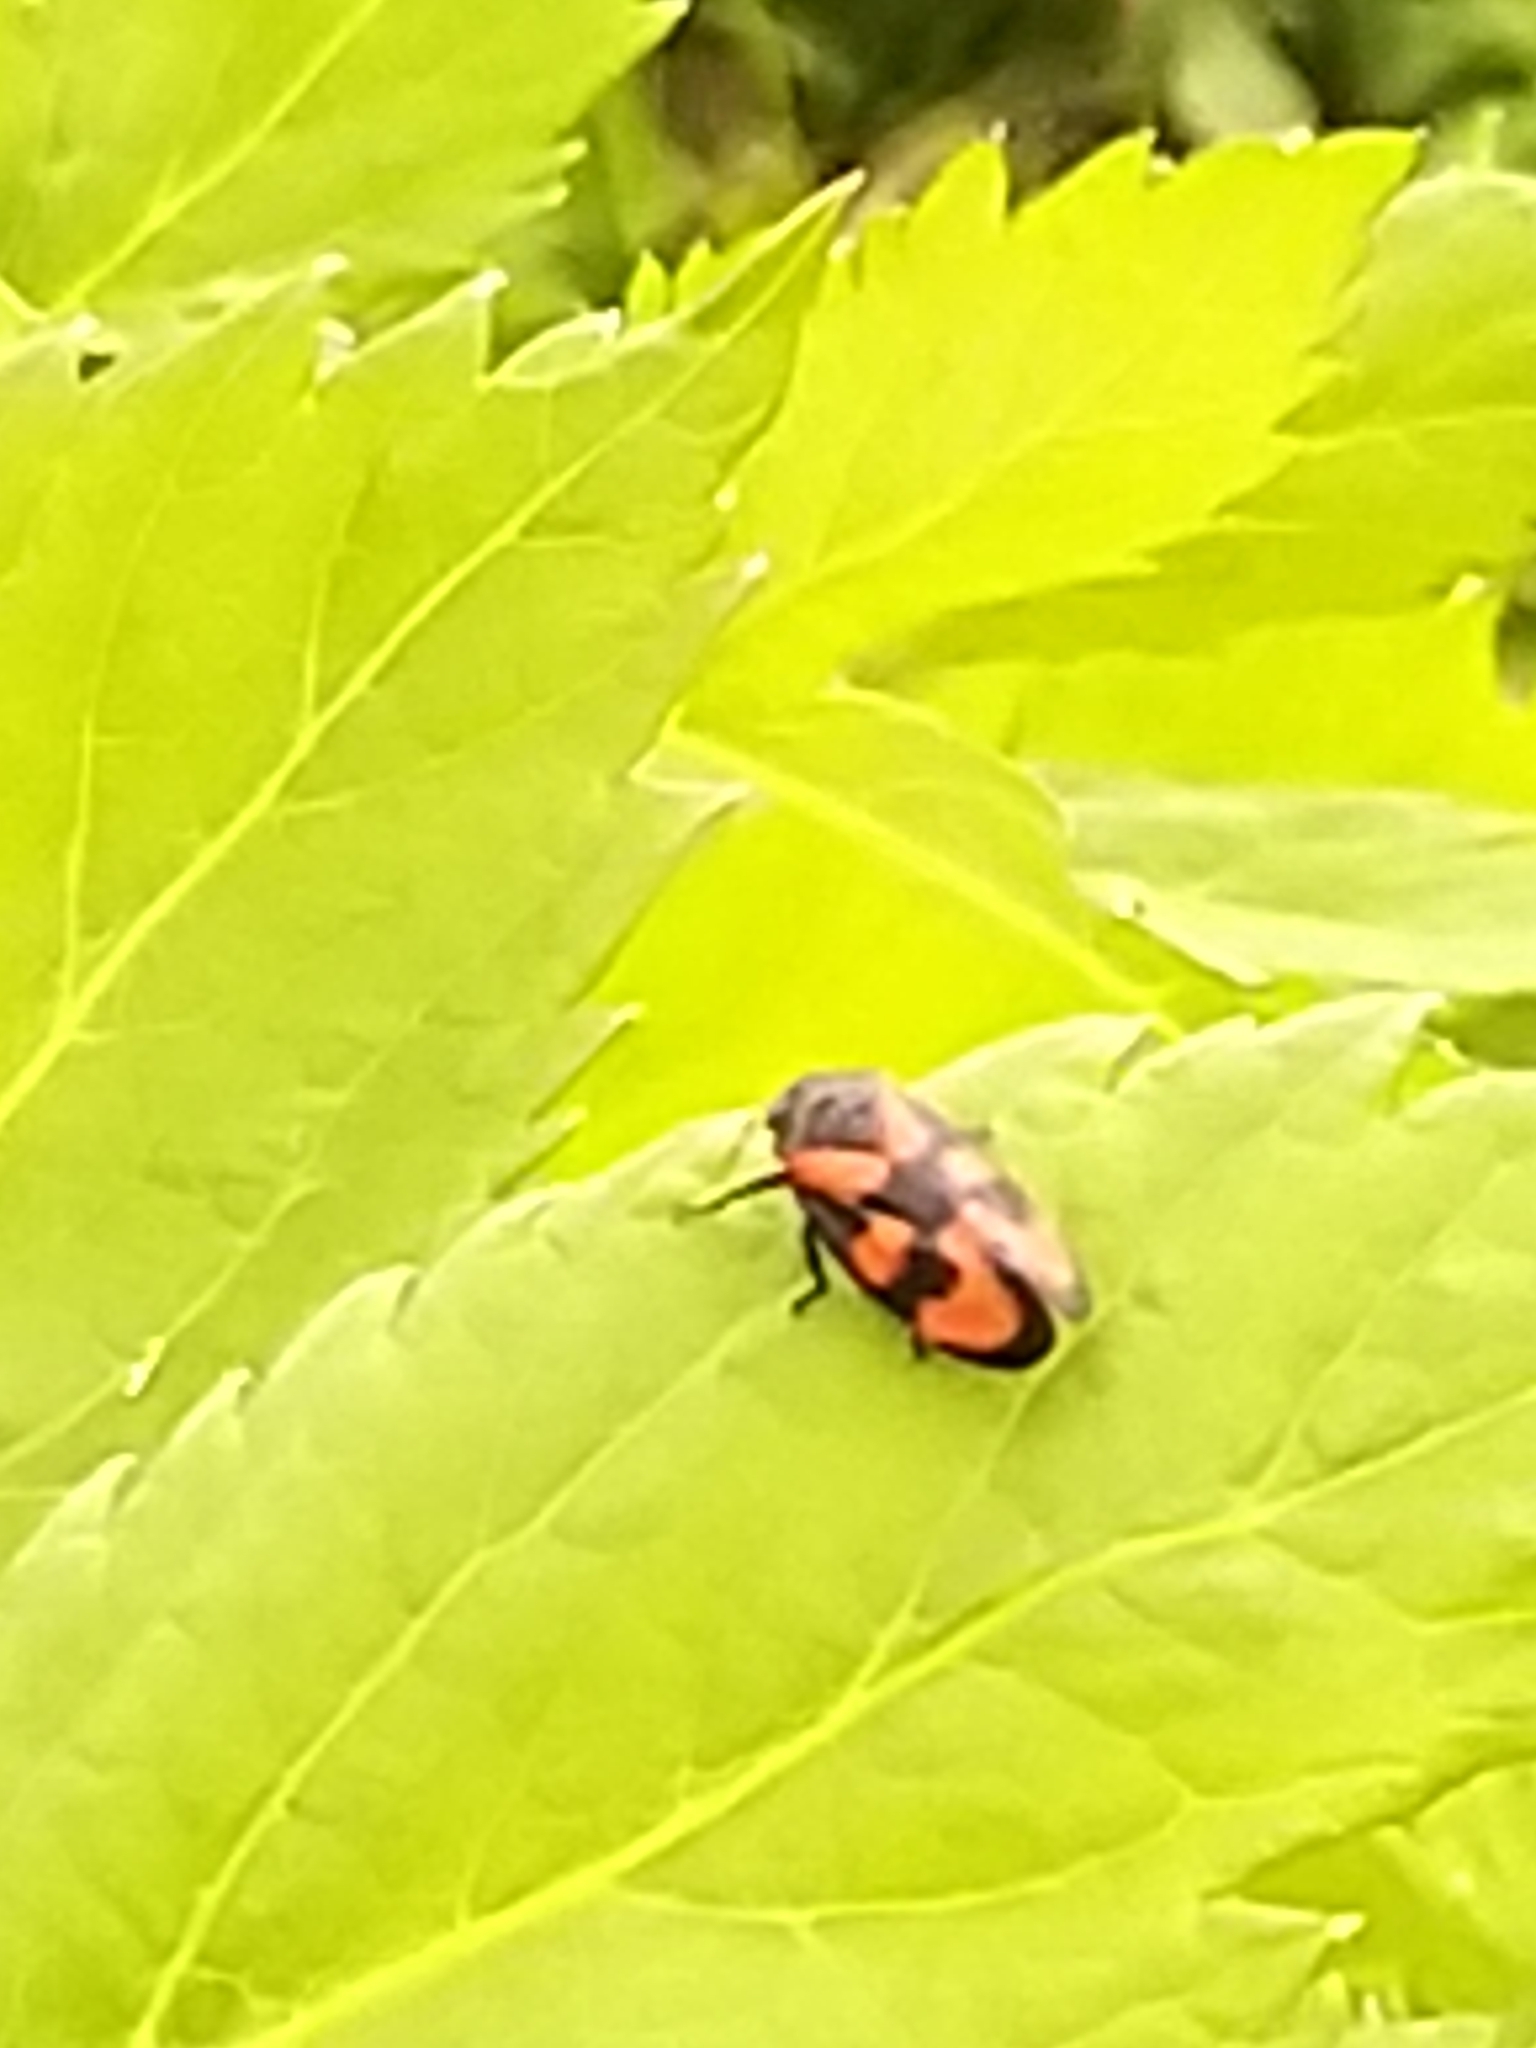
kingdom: Animalia
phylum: Arthropoda
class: Insecta
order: Hemiptera
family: Cercopidae
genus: Cercopis
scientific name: Cercopis vulnerata
